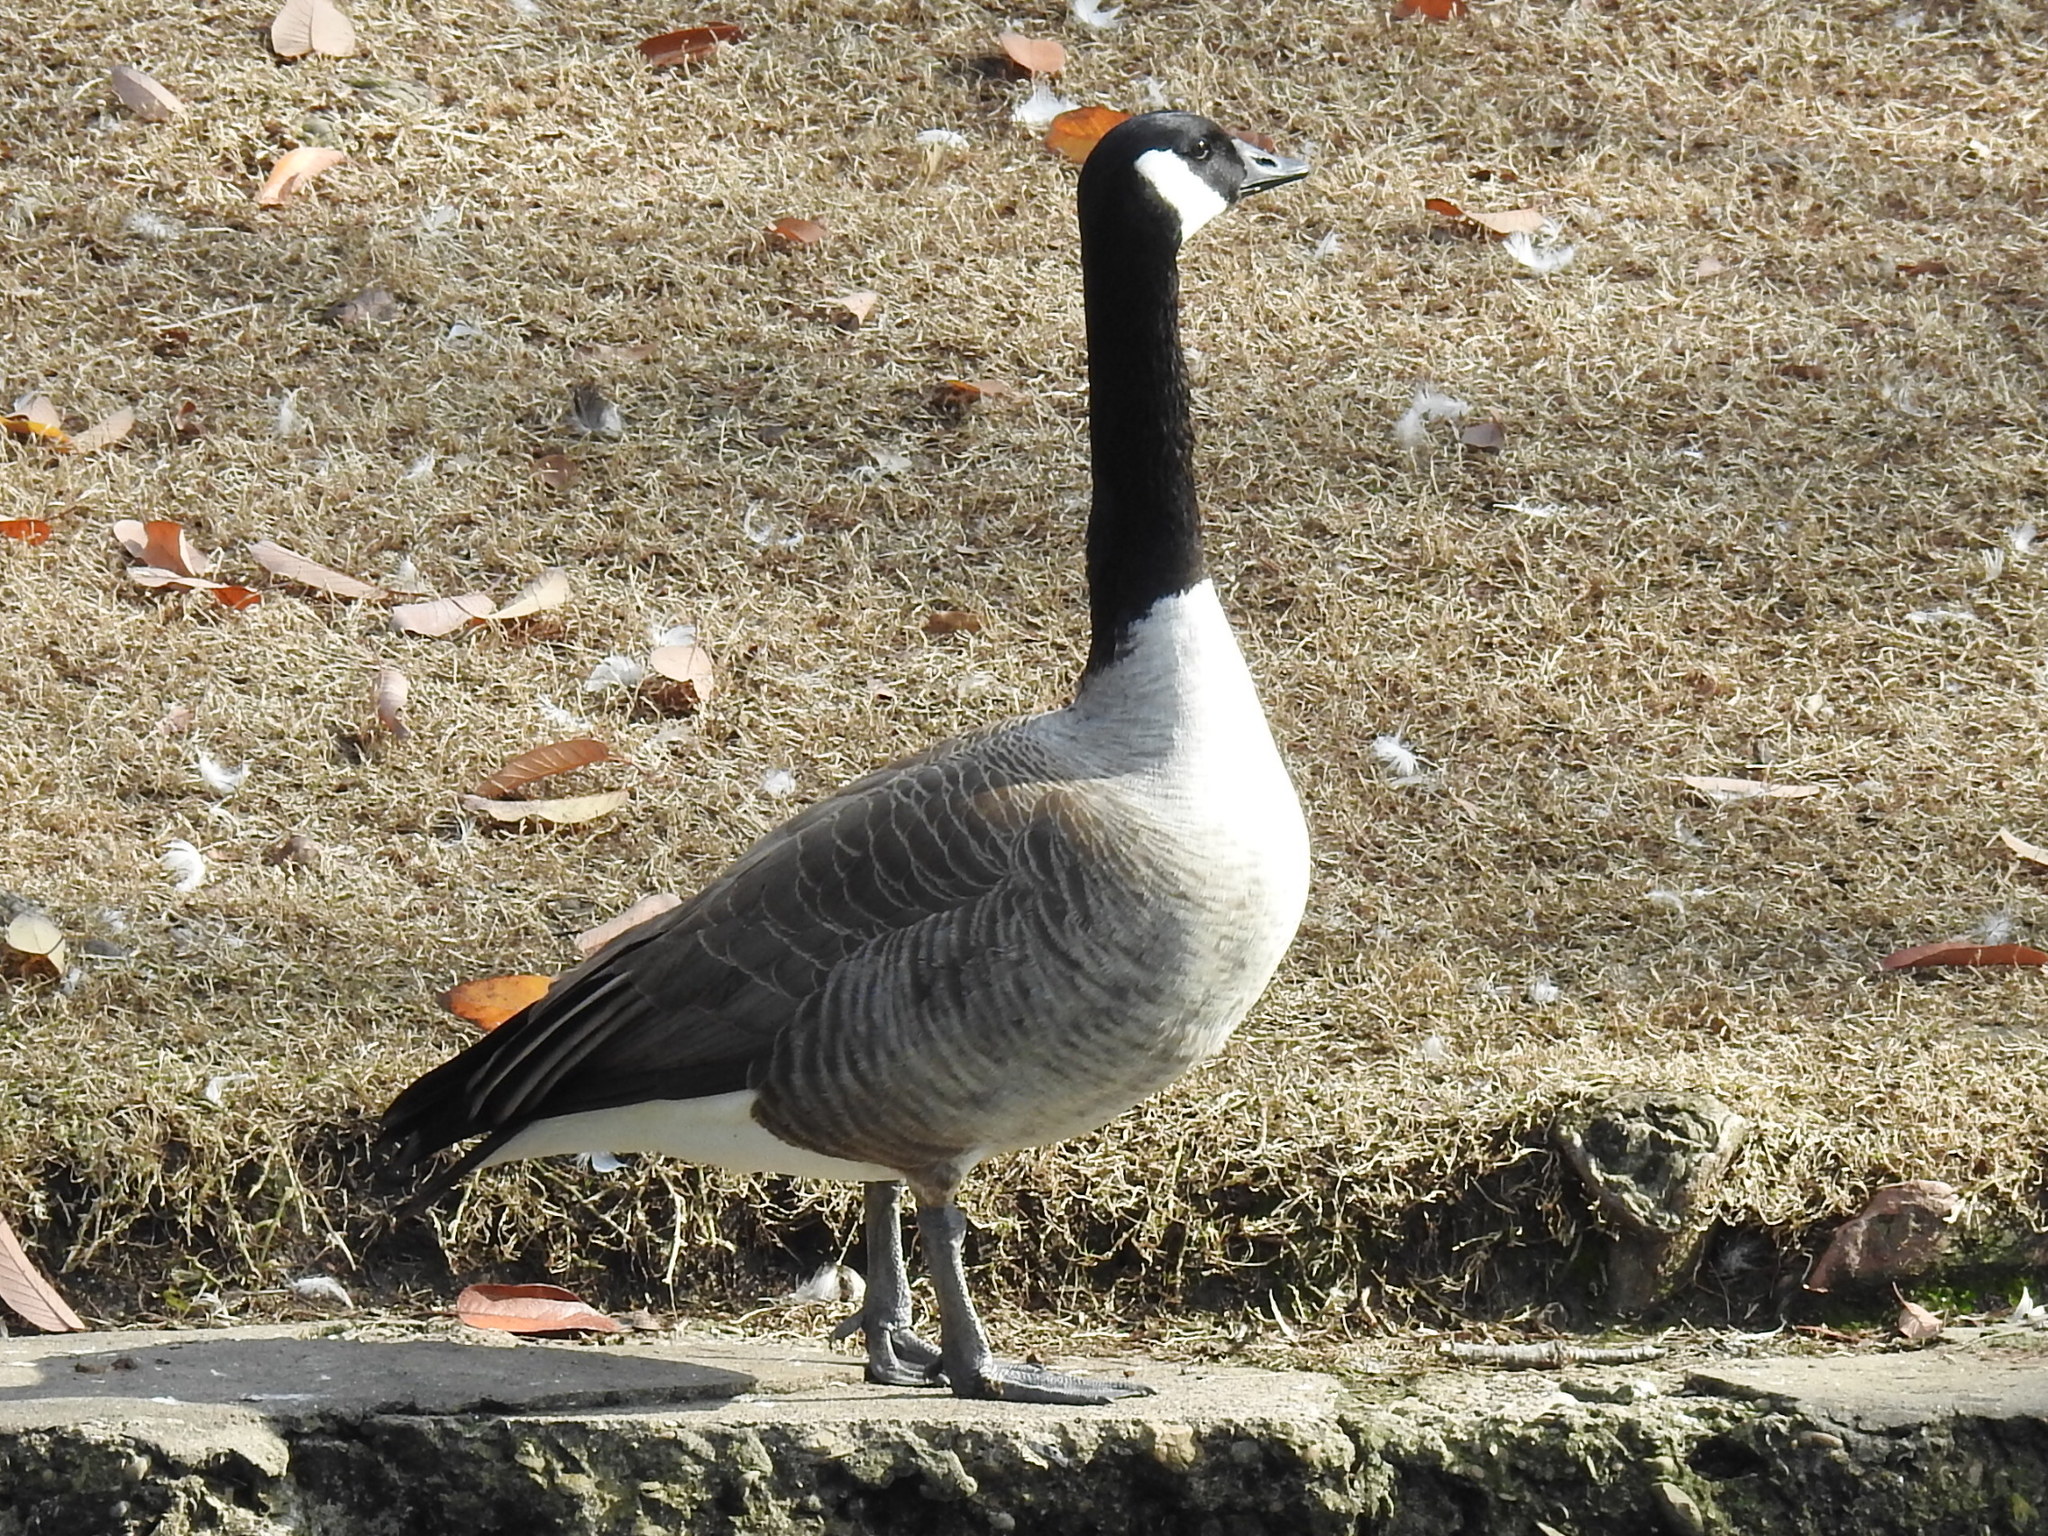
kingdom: Animalia
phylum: Chordata
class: Aves
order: Anseriformes
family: Anatidae
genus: Branta
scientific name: Branta canadensis
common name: Canada goose
